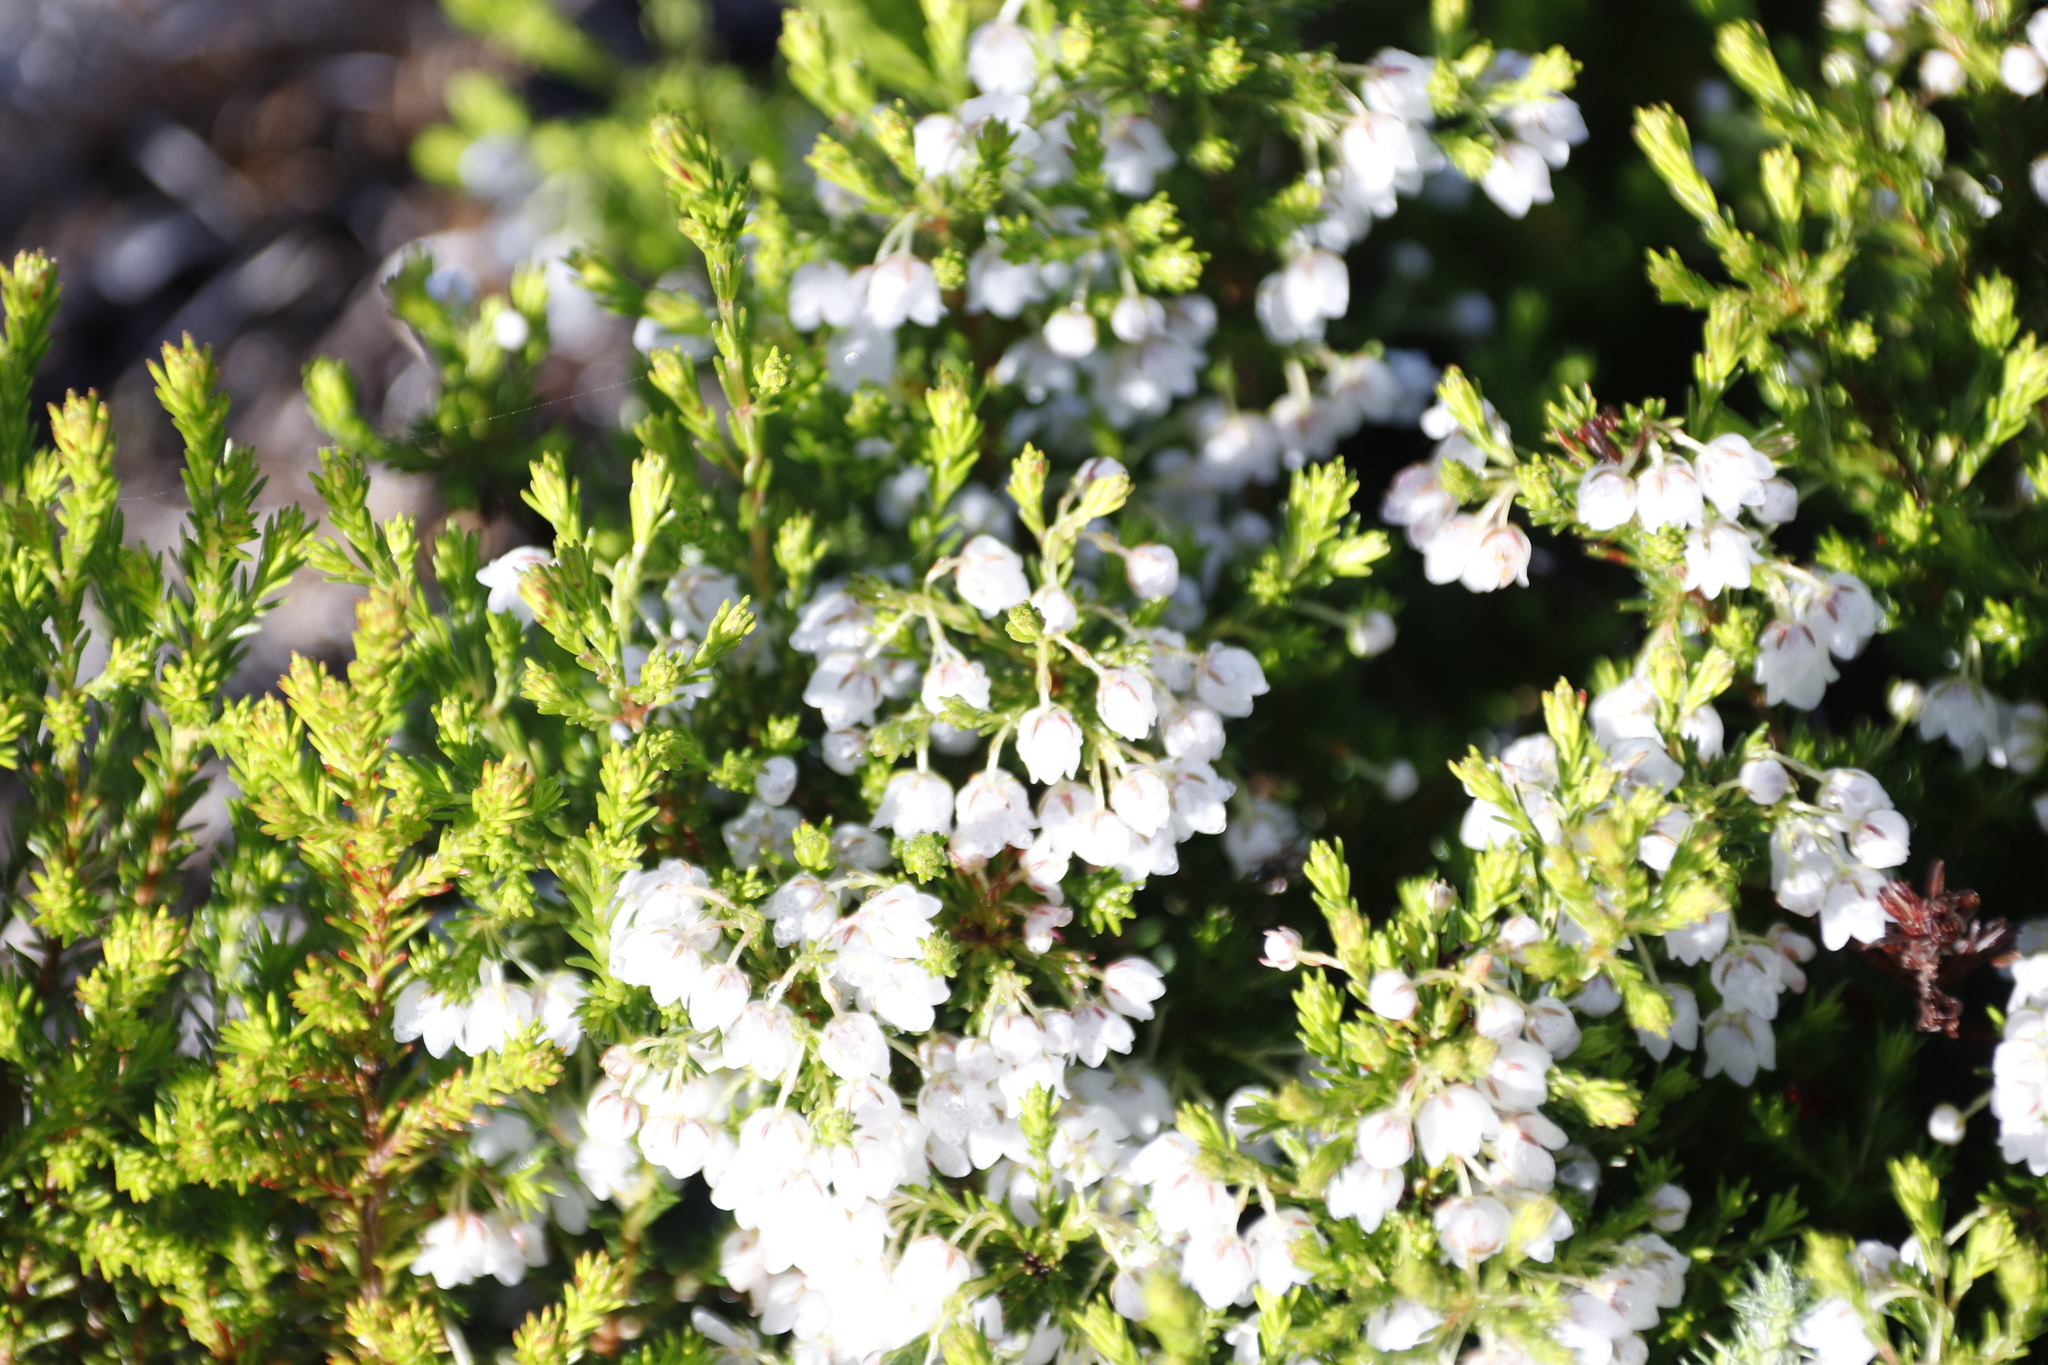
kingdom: Plantae
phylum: Tracheophyta
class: Magnoliopsida
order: Ericales
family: Ericaceae
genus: Erica
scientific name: Erica subdivaricata
